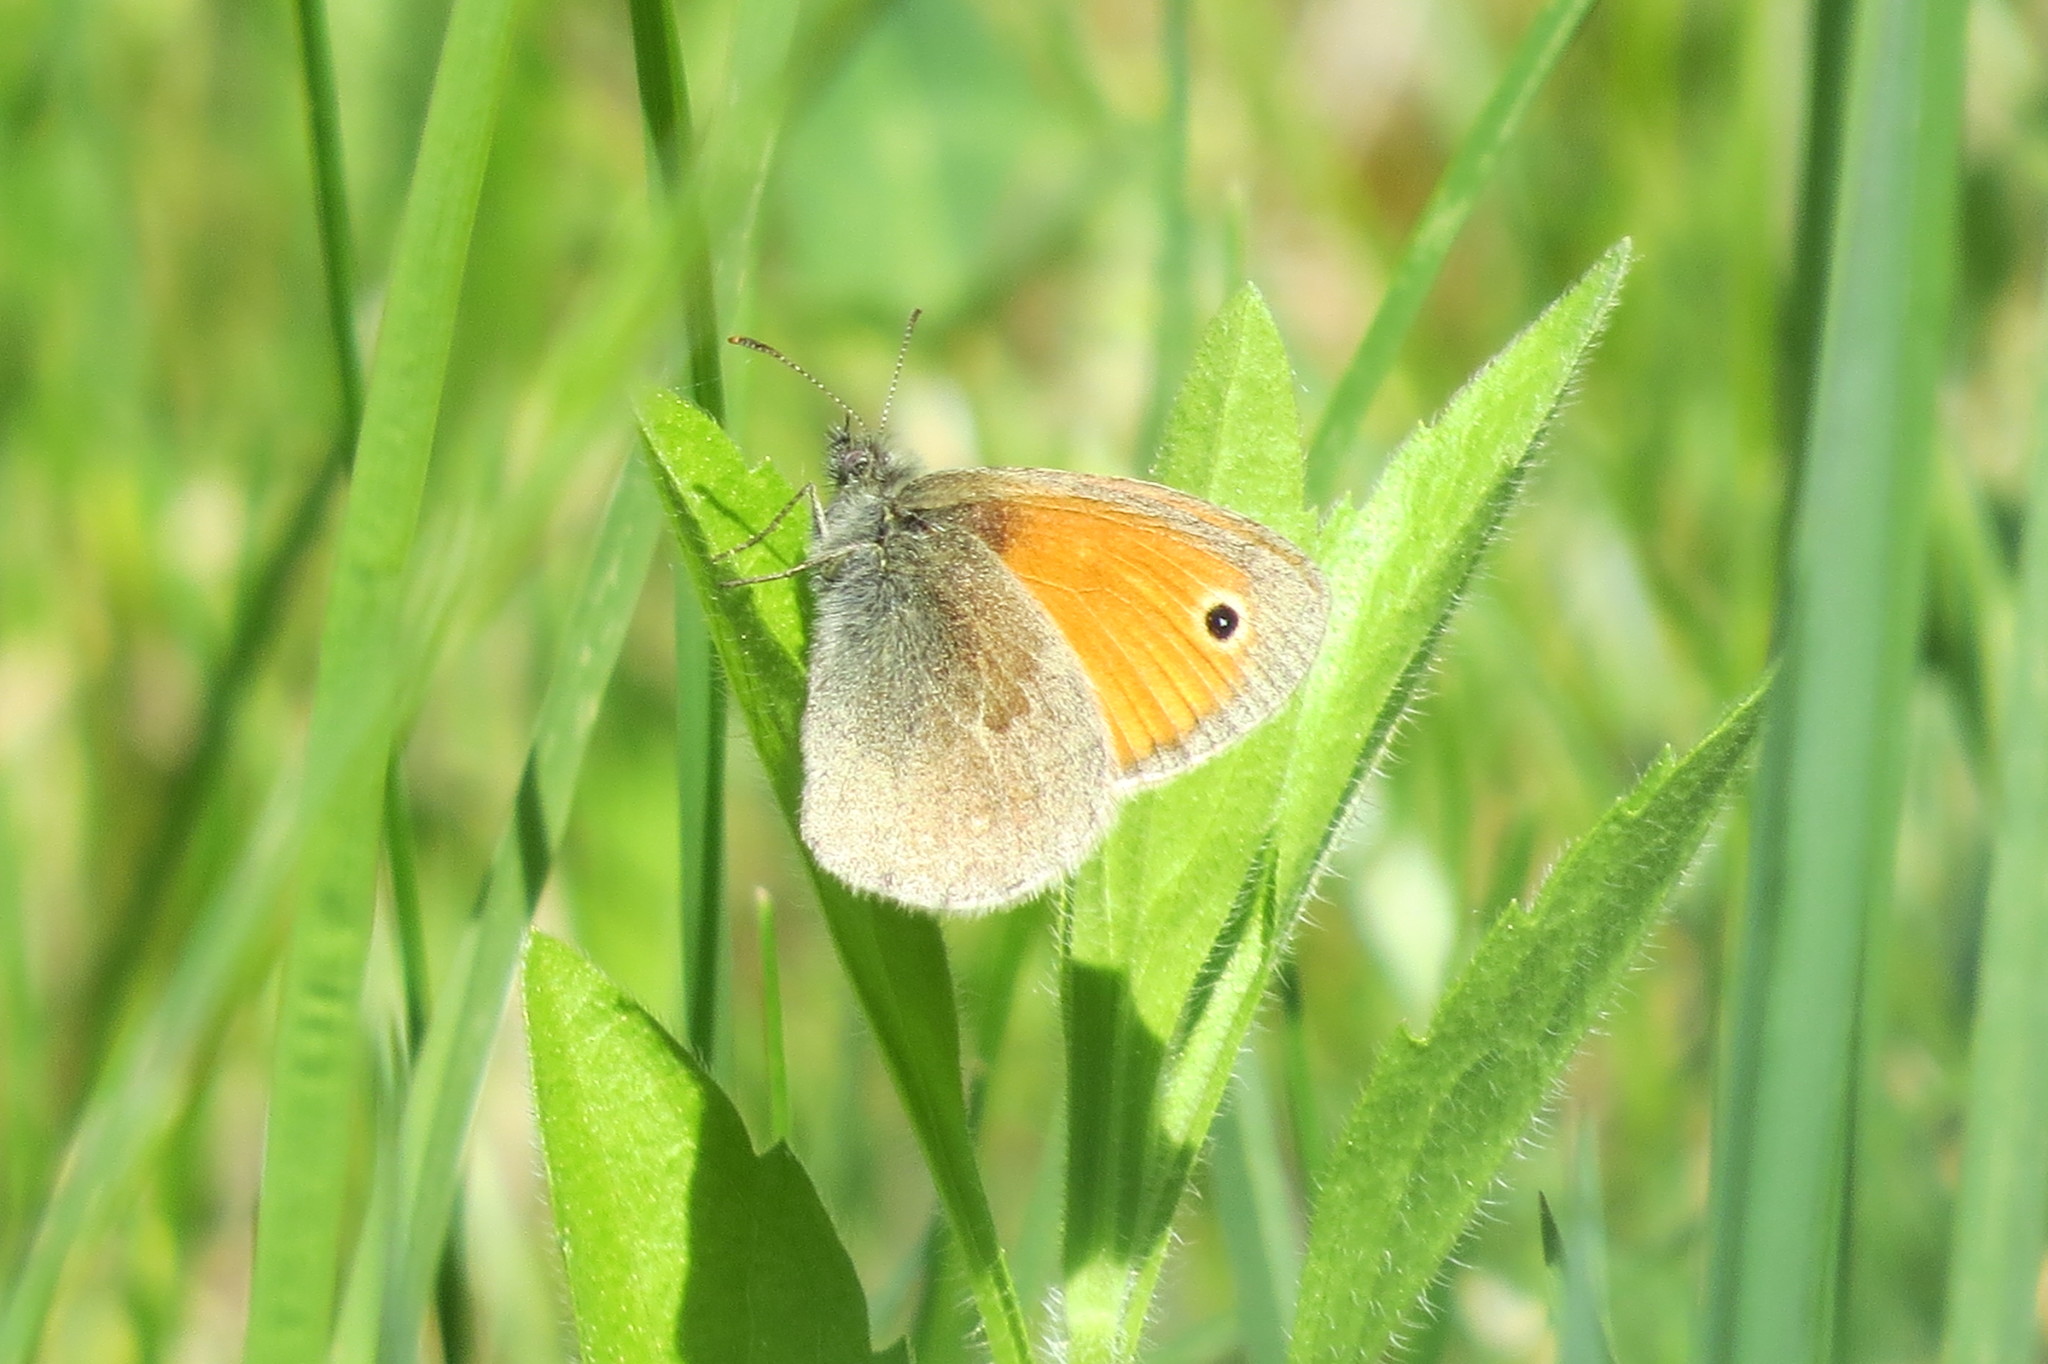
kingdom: Animalia
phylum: Arthropoda
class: Insecta
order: Lepidoptera
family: Nymphalidae
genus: Coenonympha
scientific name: Coenonympha pamphilus
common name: Small heath
